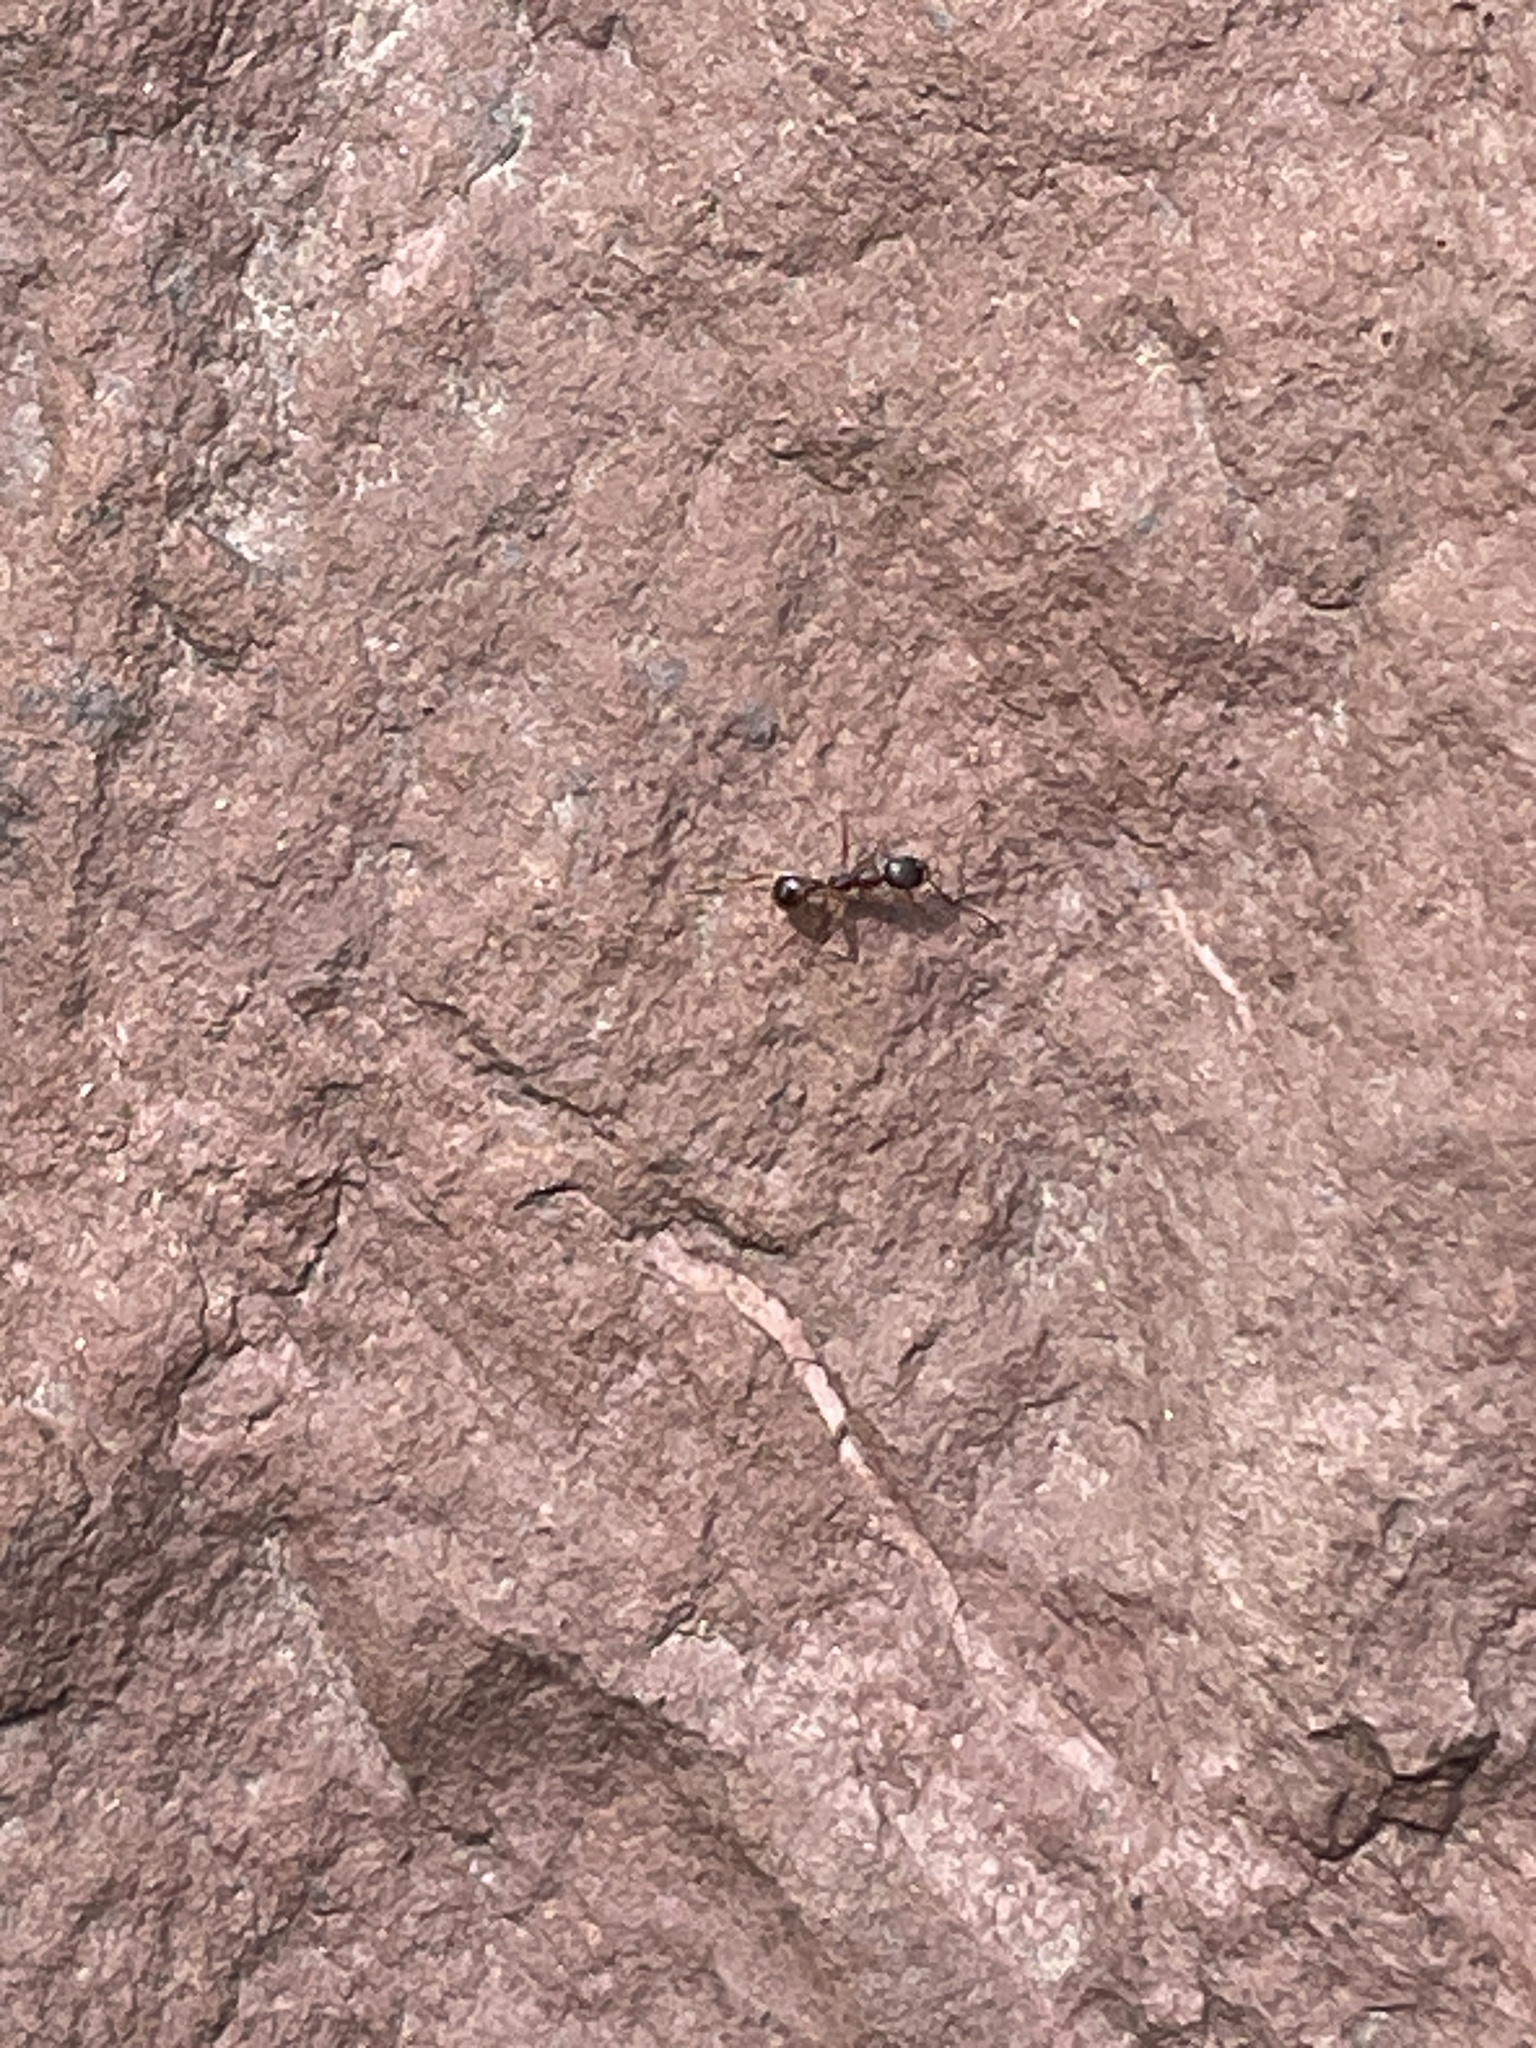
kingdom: Animalia
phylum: Arthropoda
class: Insecta
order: Hymenoptera
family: Formicidae
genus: Aphaenogaster
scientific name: Aphaenogaster rudis
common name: Winnow ant
